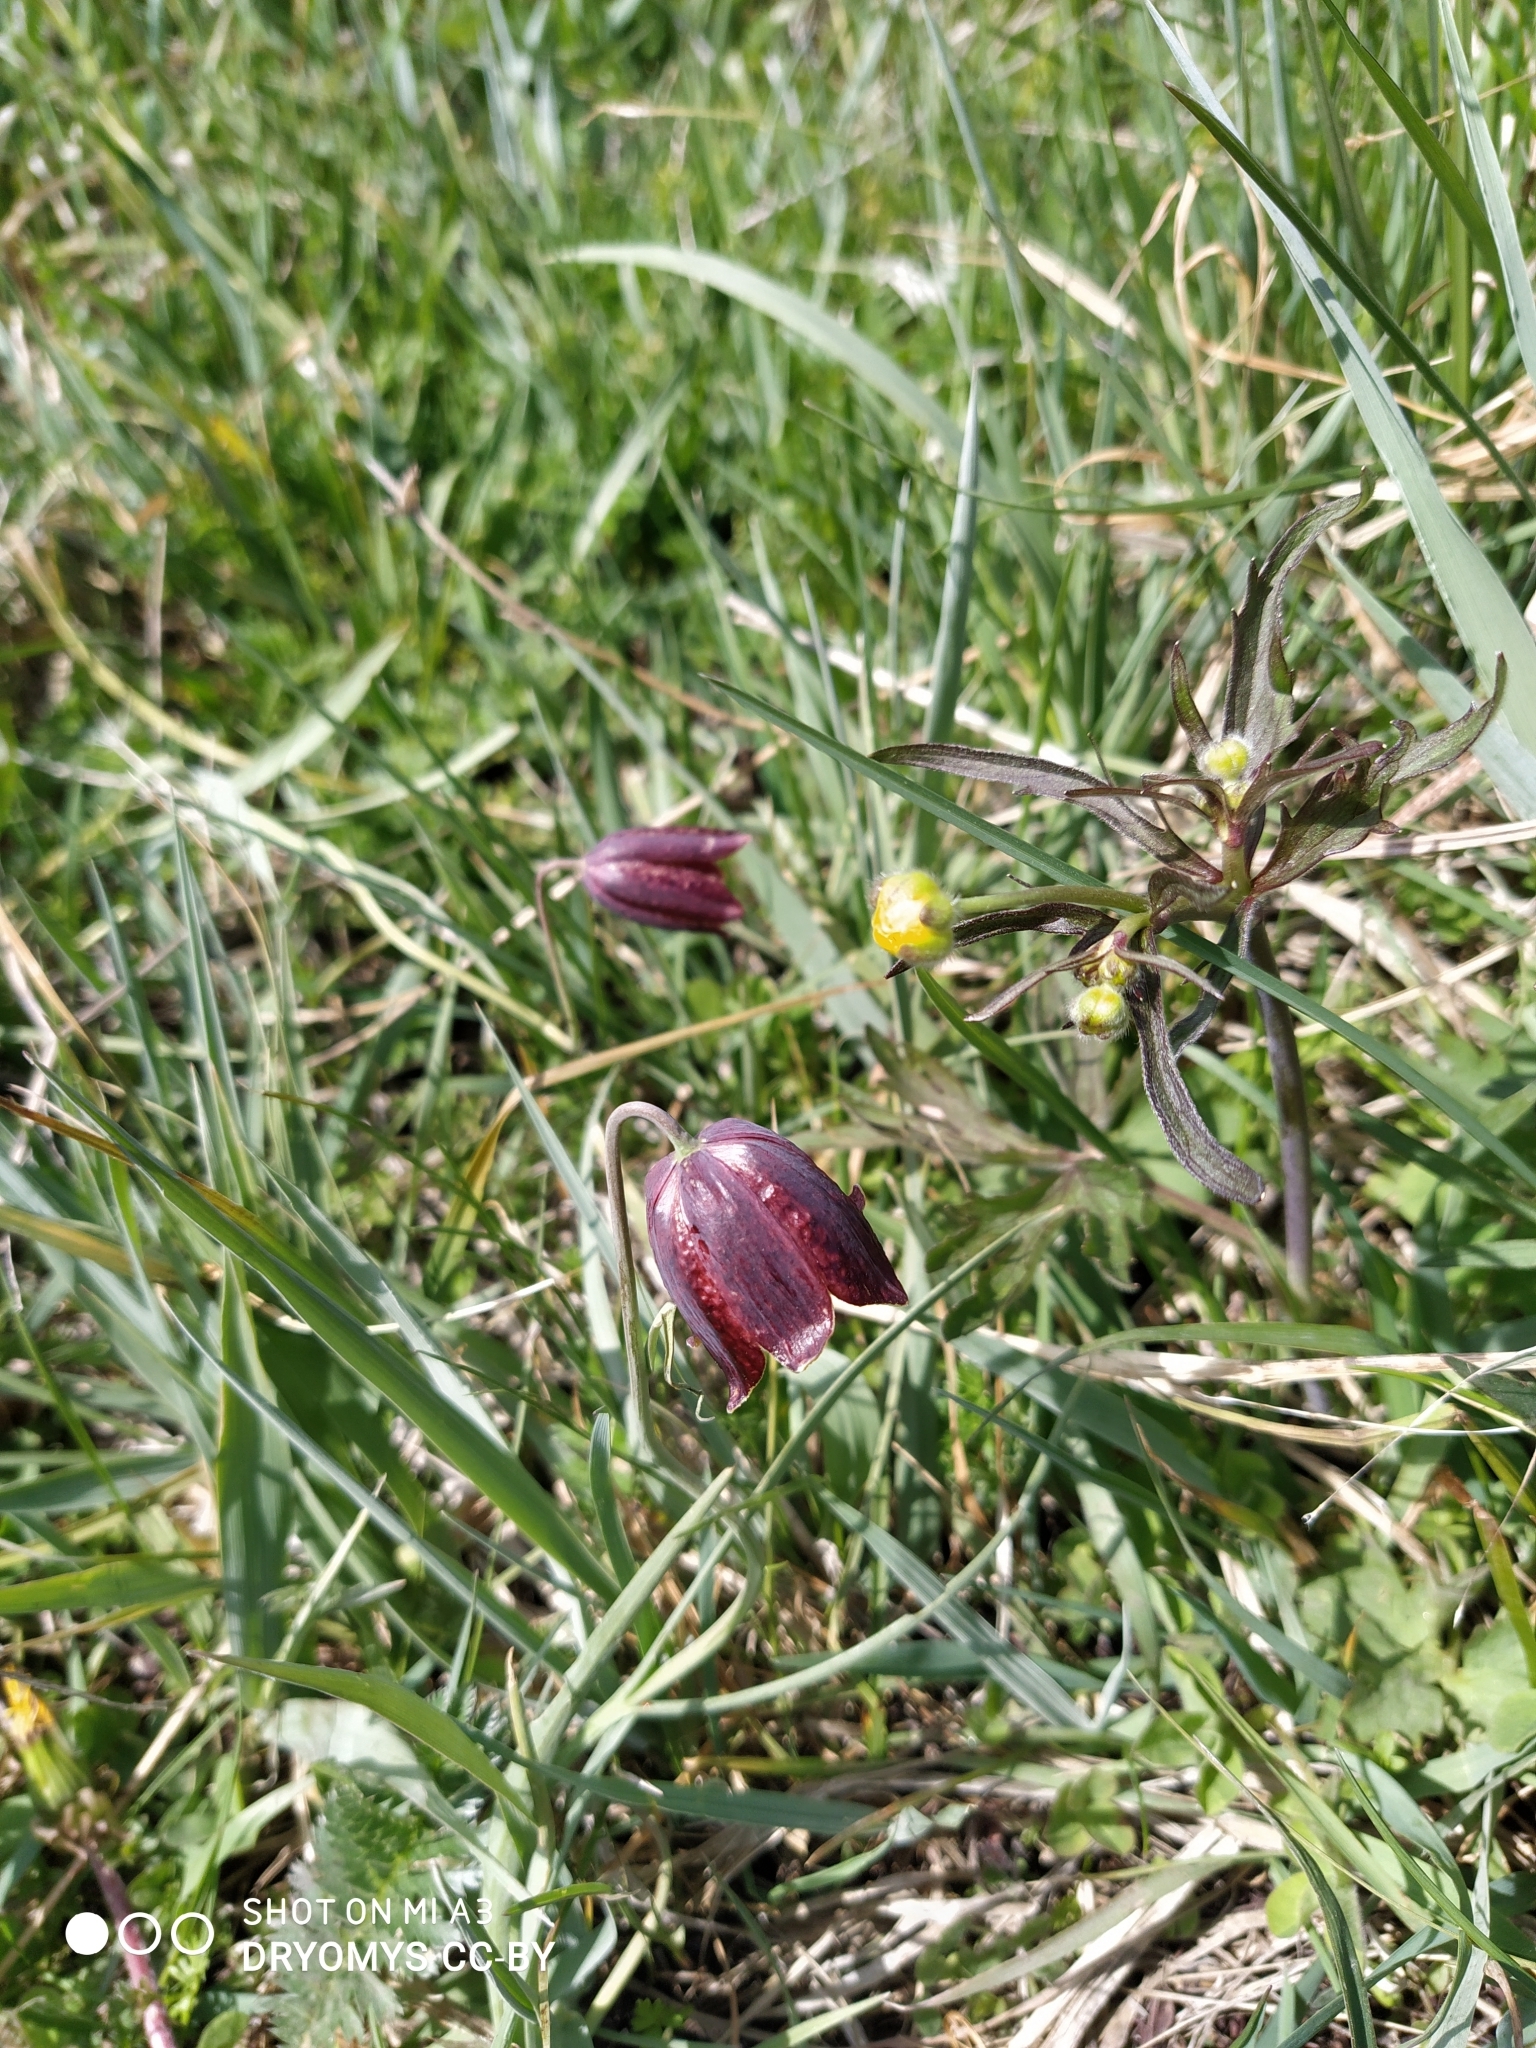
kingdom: Plantae
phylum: Tracheophyta
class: Liliopsida
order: Liliales
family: Liliaceae
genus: Fritillaria
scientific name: Fritillaria meleagroides
